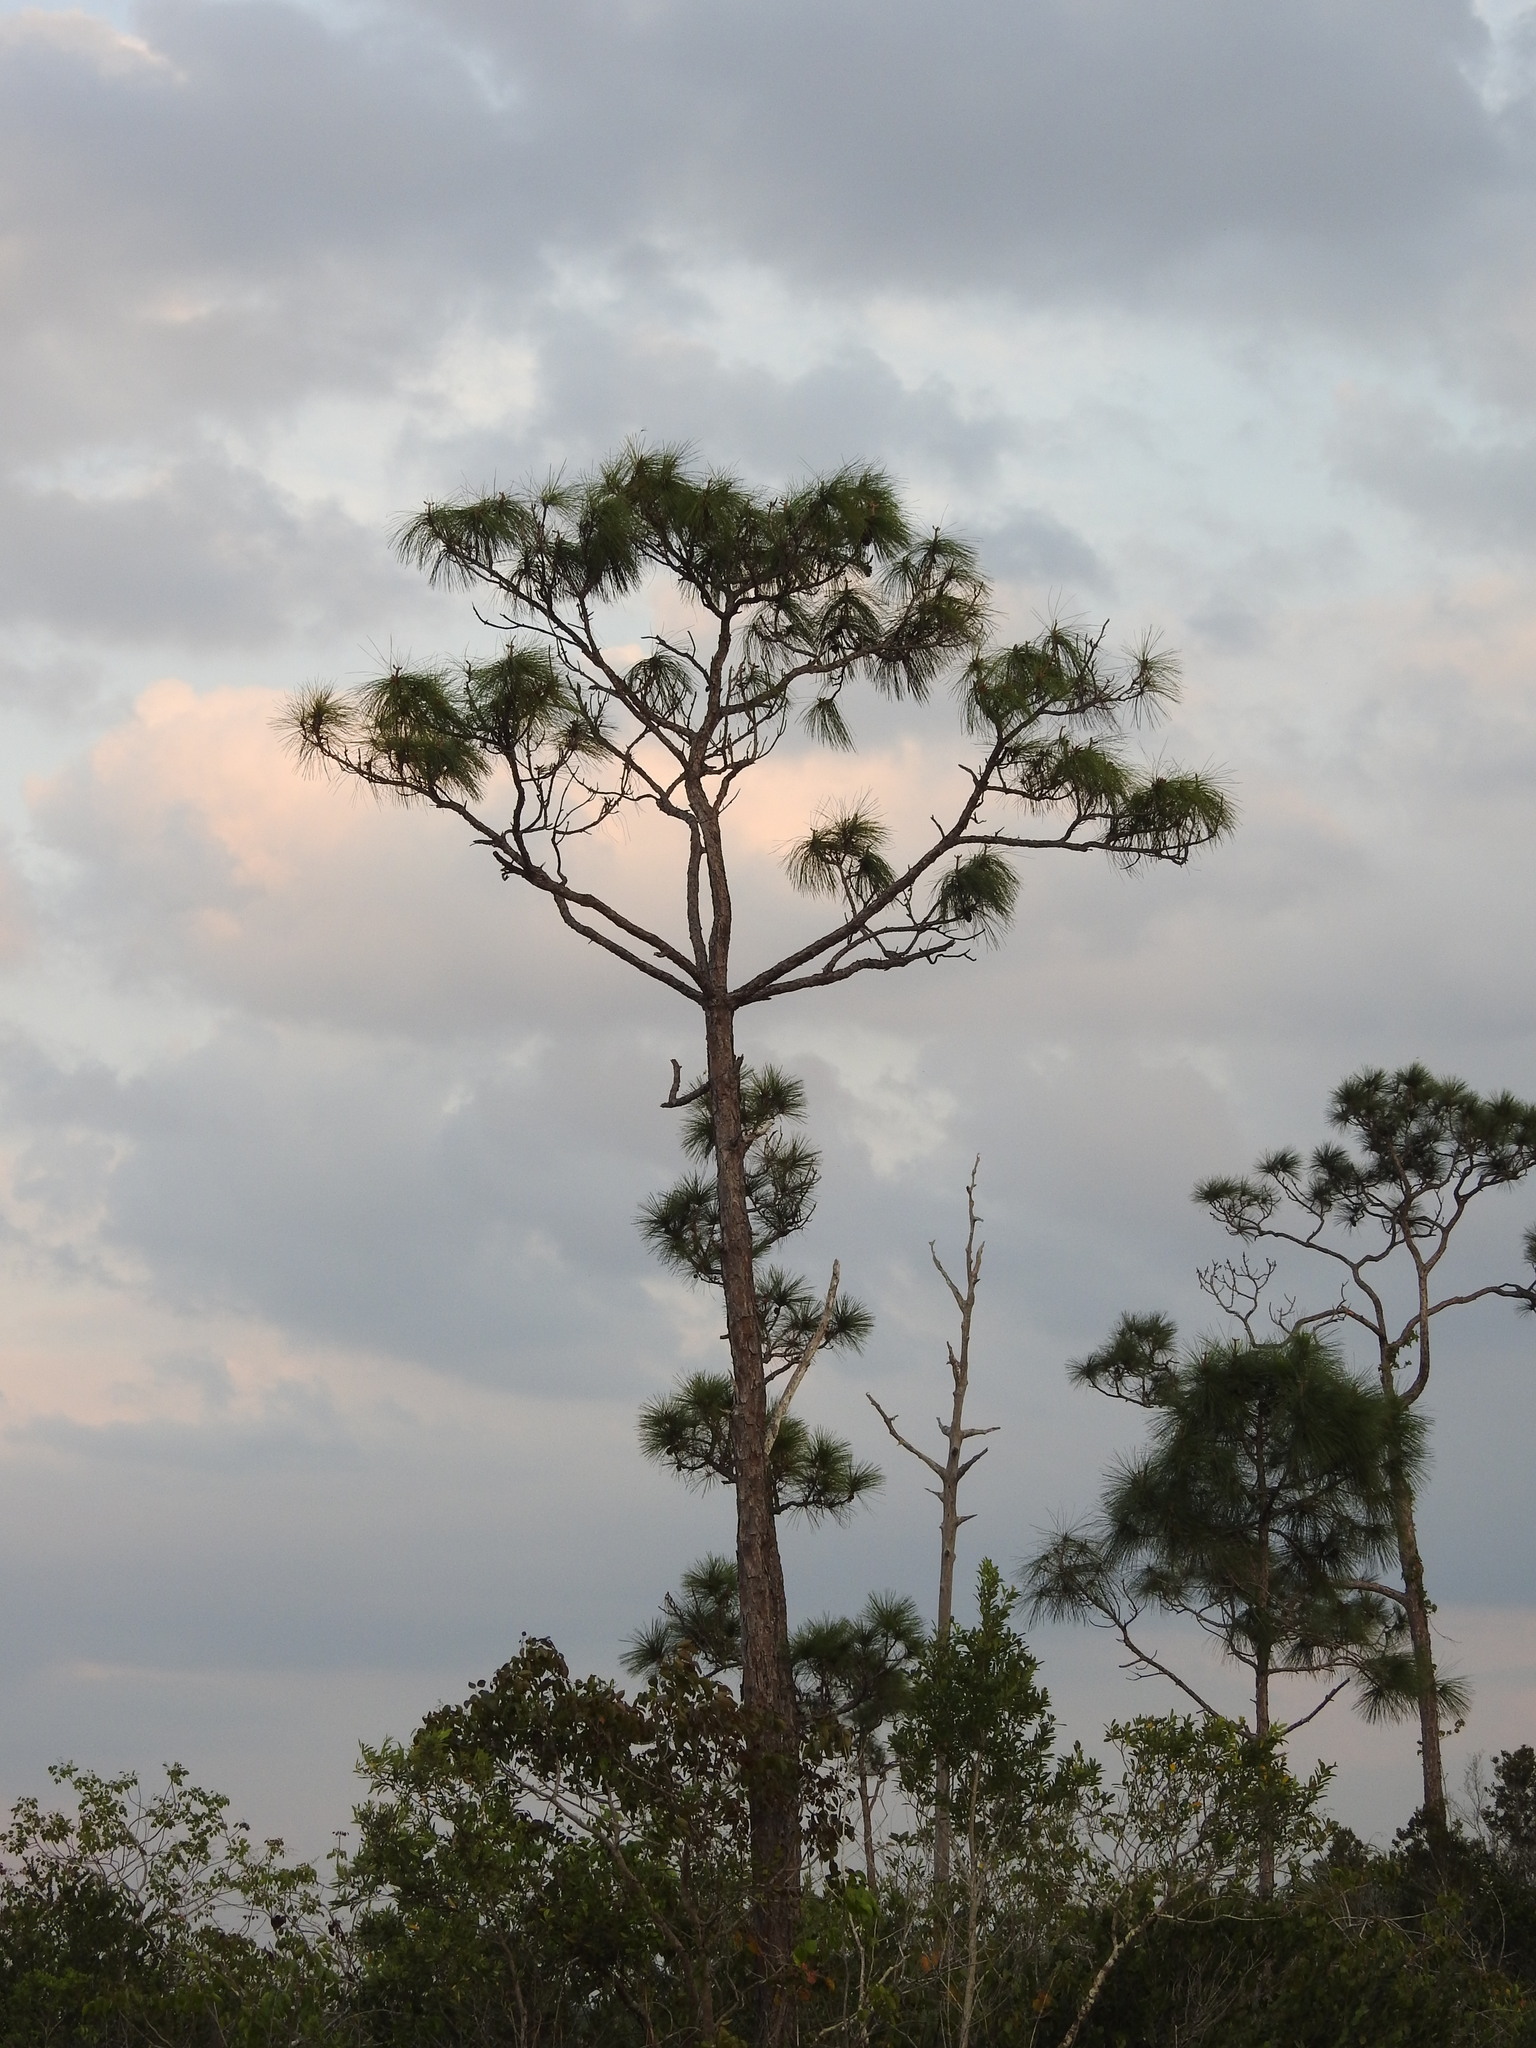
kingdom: Plantae
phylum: Tracheophyta
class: Pinopsida
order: Pinales
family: Pinaceae
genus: Pinus
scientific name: Pinus elliottii
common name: Slash pine
